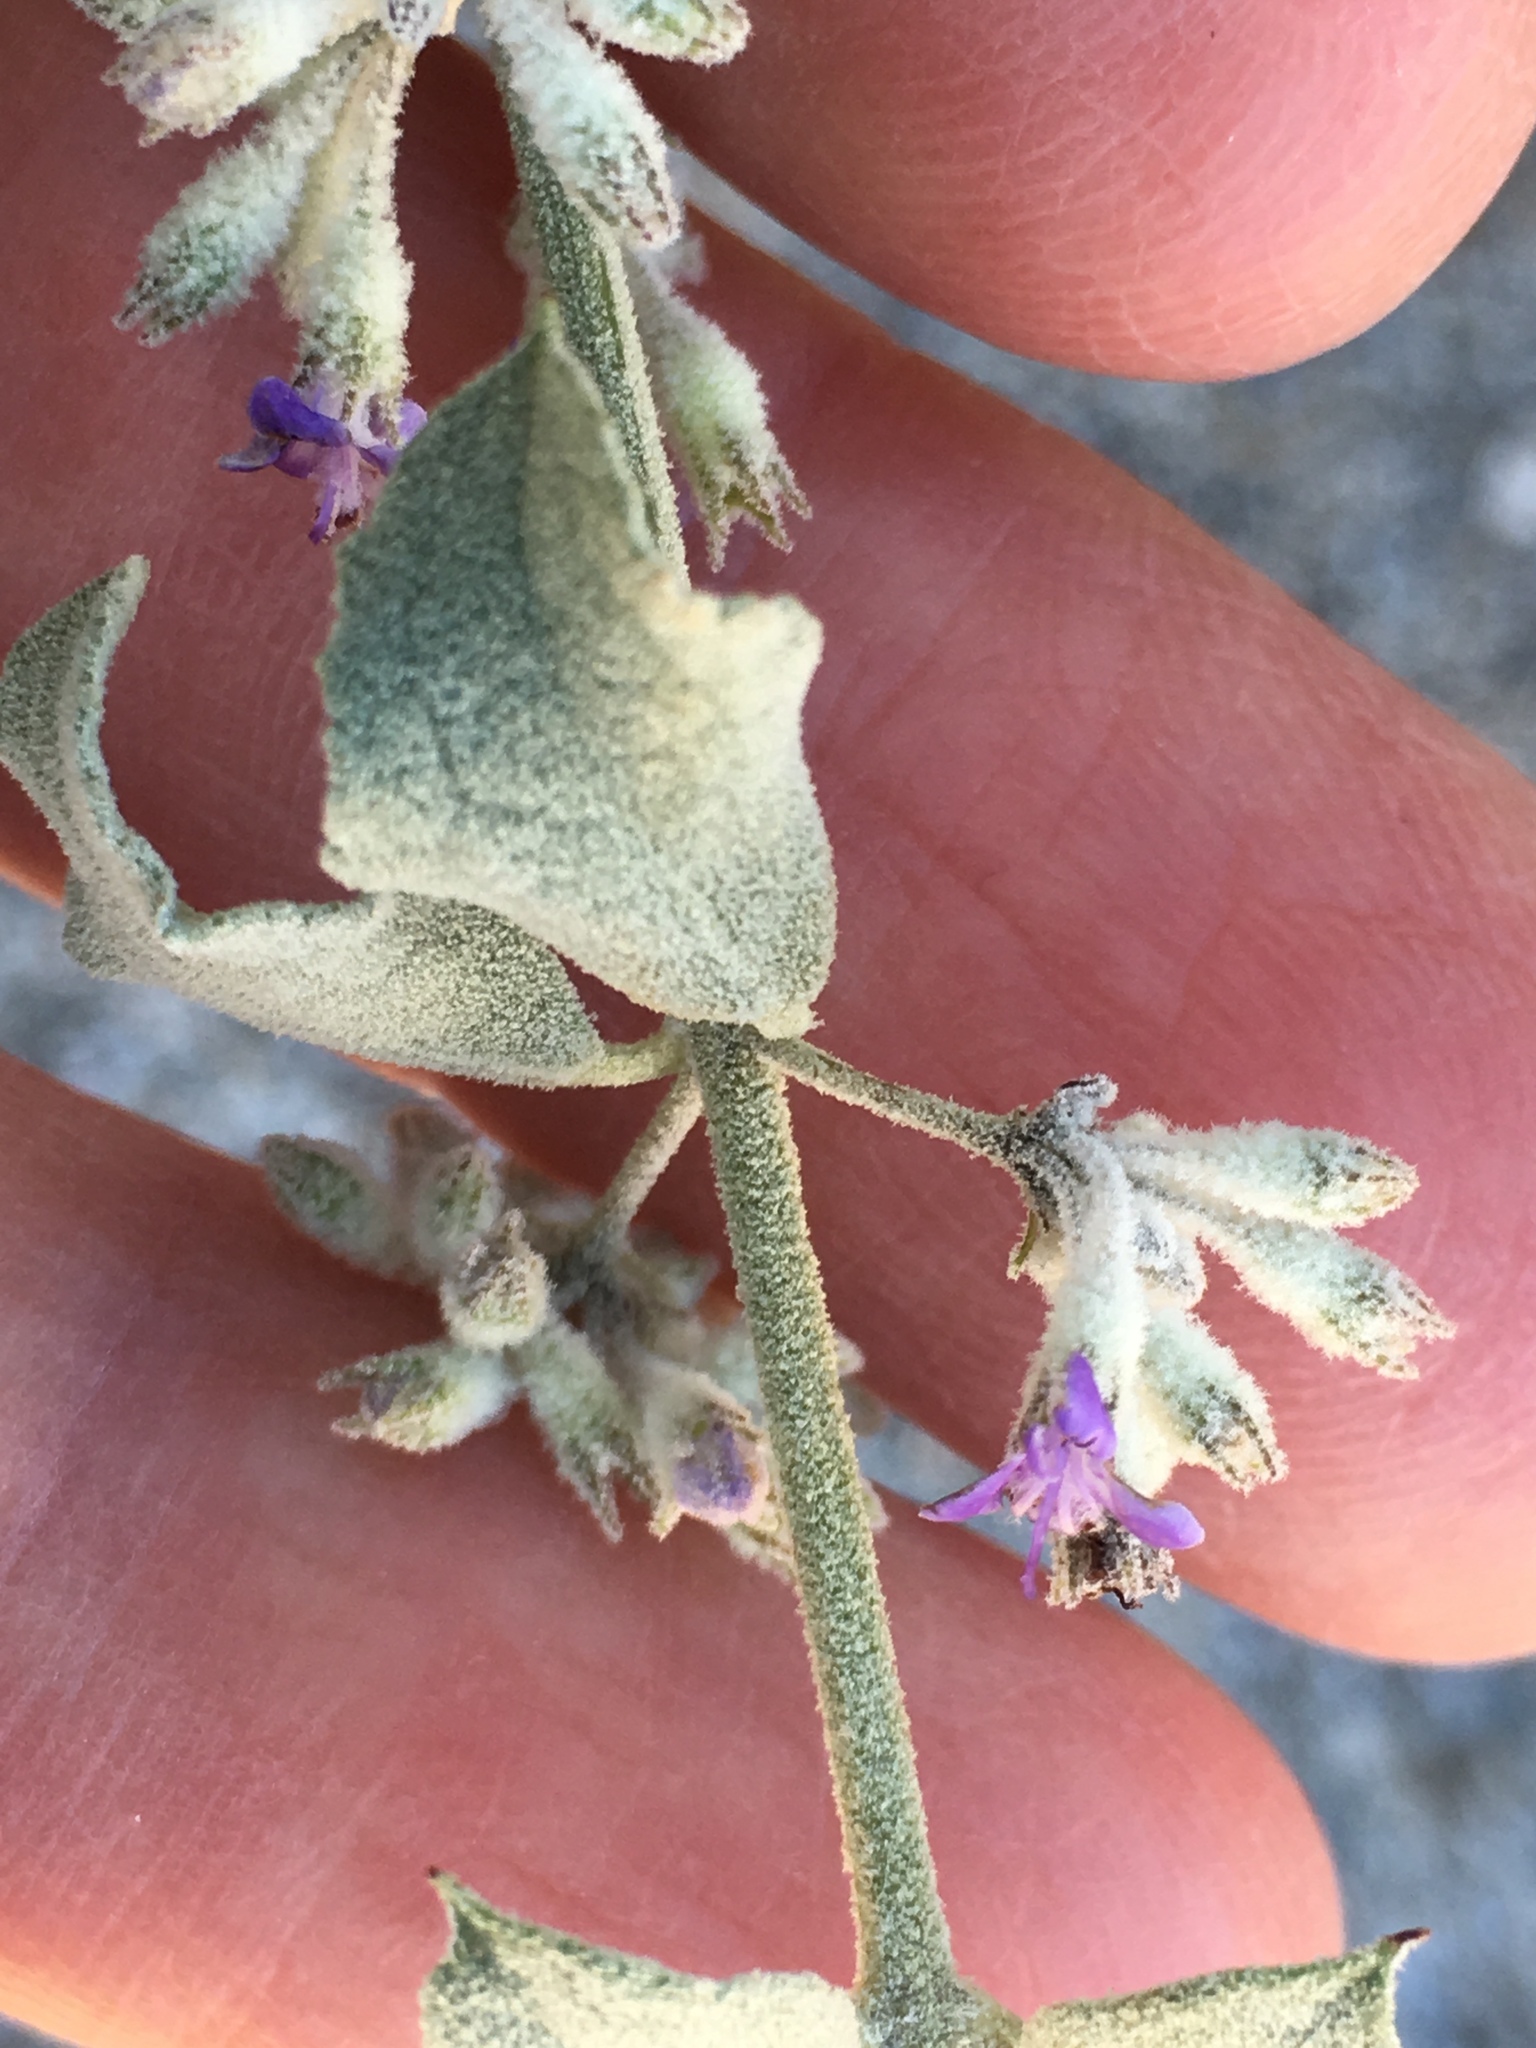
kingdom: Plantae
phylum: Tracheophyta
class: Magnoliopsida
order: Lamiales
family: Lamiaceae
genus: Condea
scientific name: Condea emoryi
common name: Chia
